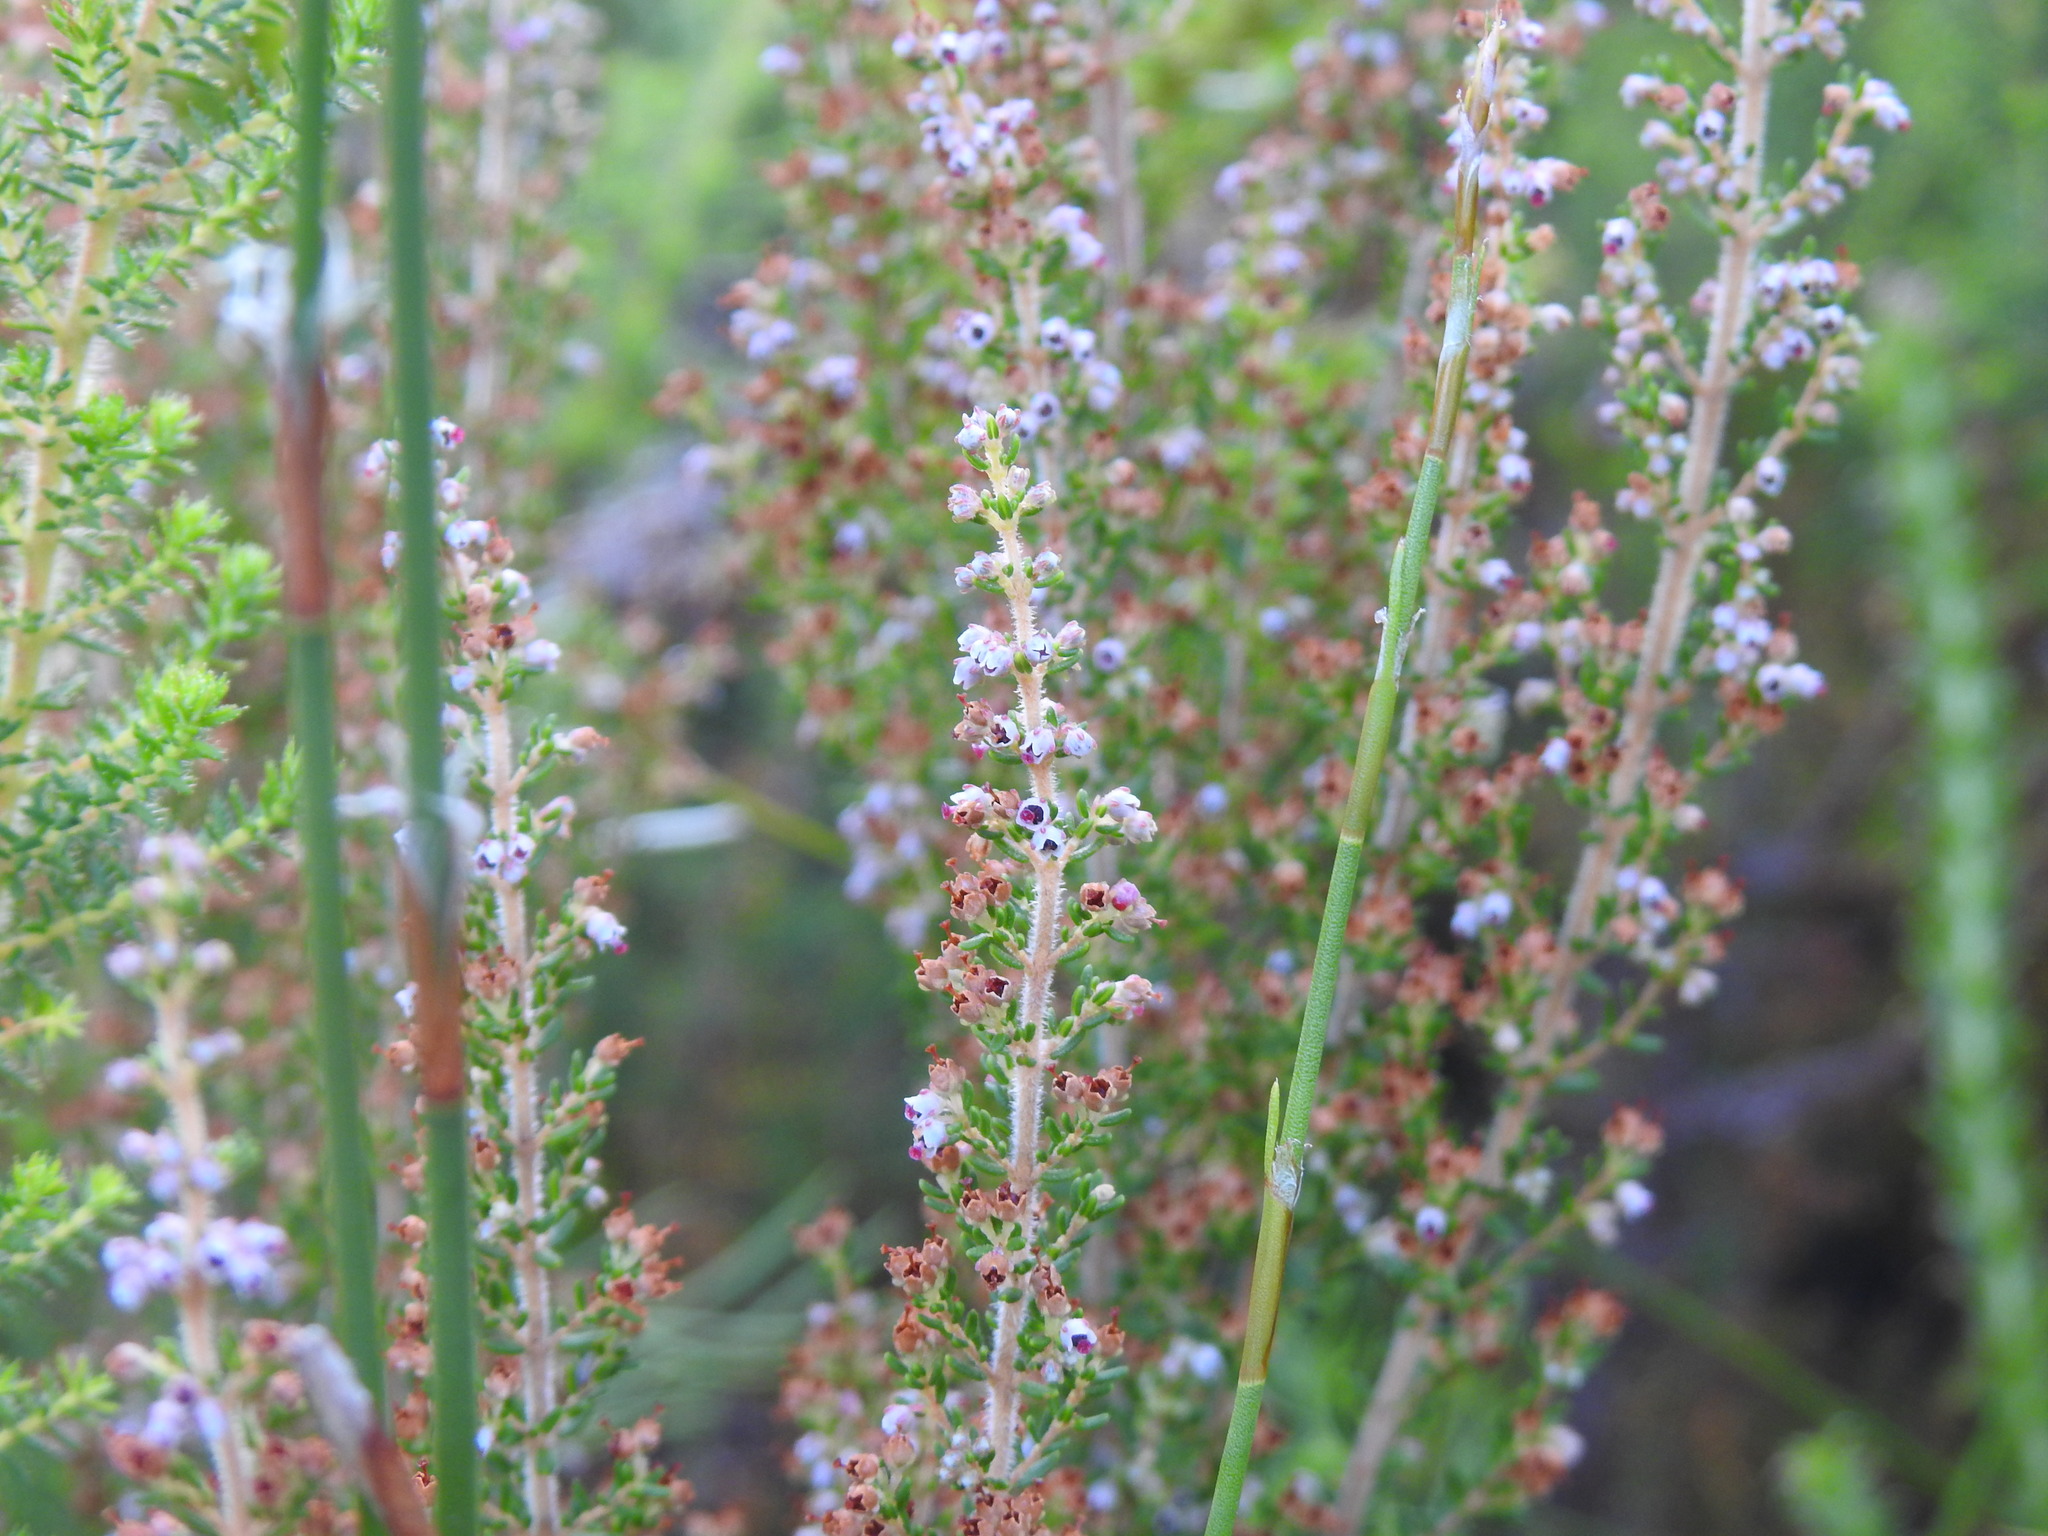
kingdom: Plantae
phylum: Tracheophyta
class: Magnoliopsida
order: Ericales
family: Ericaceae
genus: Erica
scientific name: Erica hispidula
